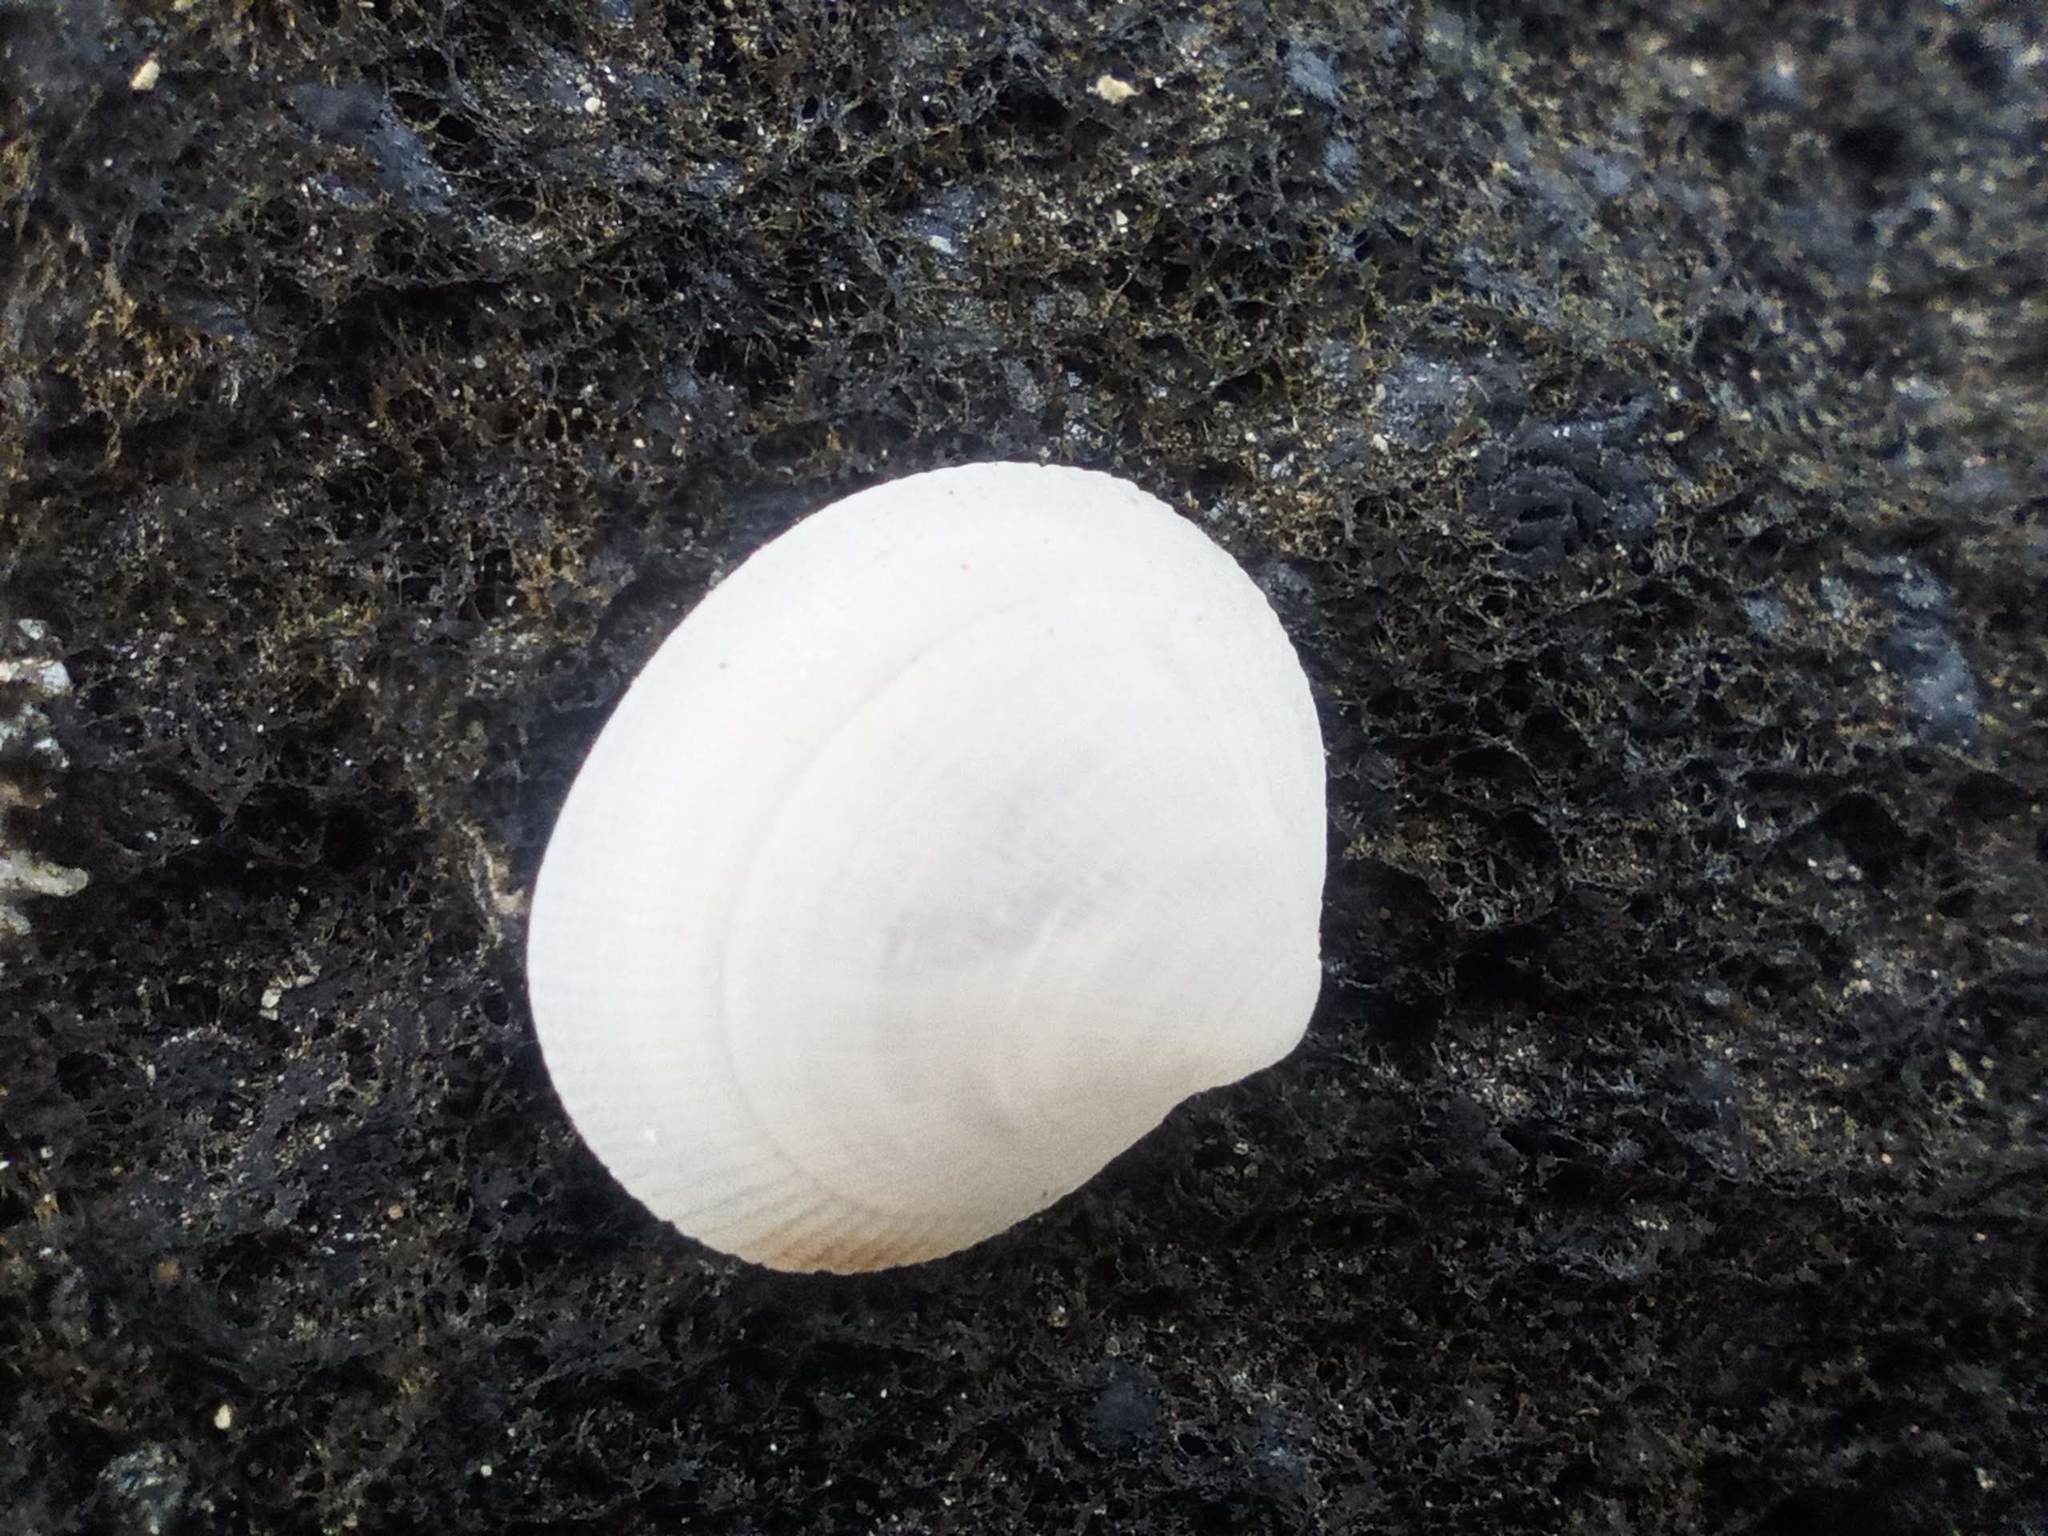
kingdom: Animalia
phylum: Mollusca
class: Bivalvia
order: Lucinida
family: Lucinidae
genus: Ctena
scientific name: Ctena decussata
